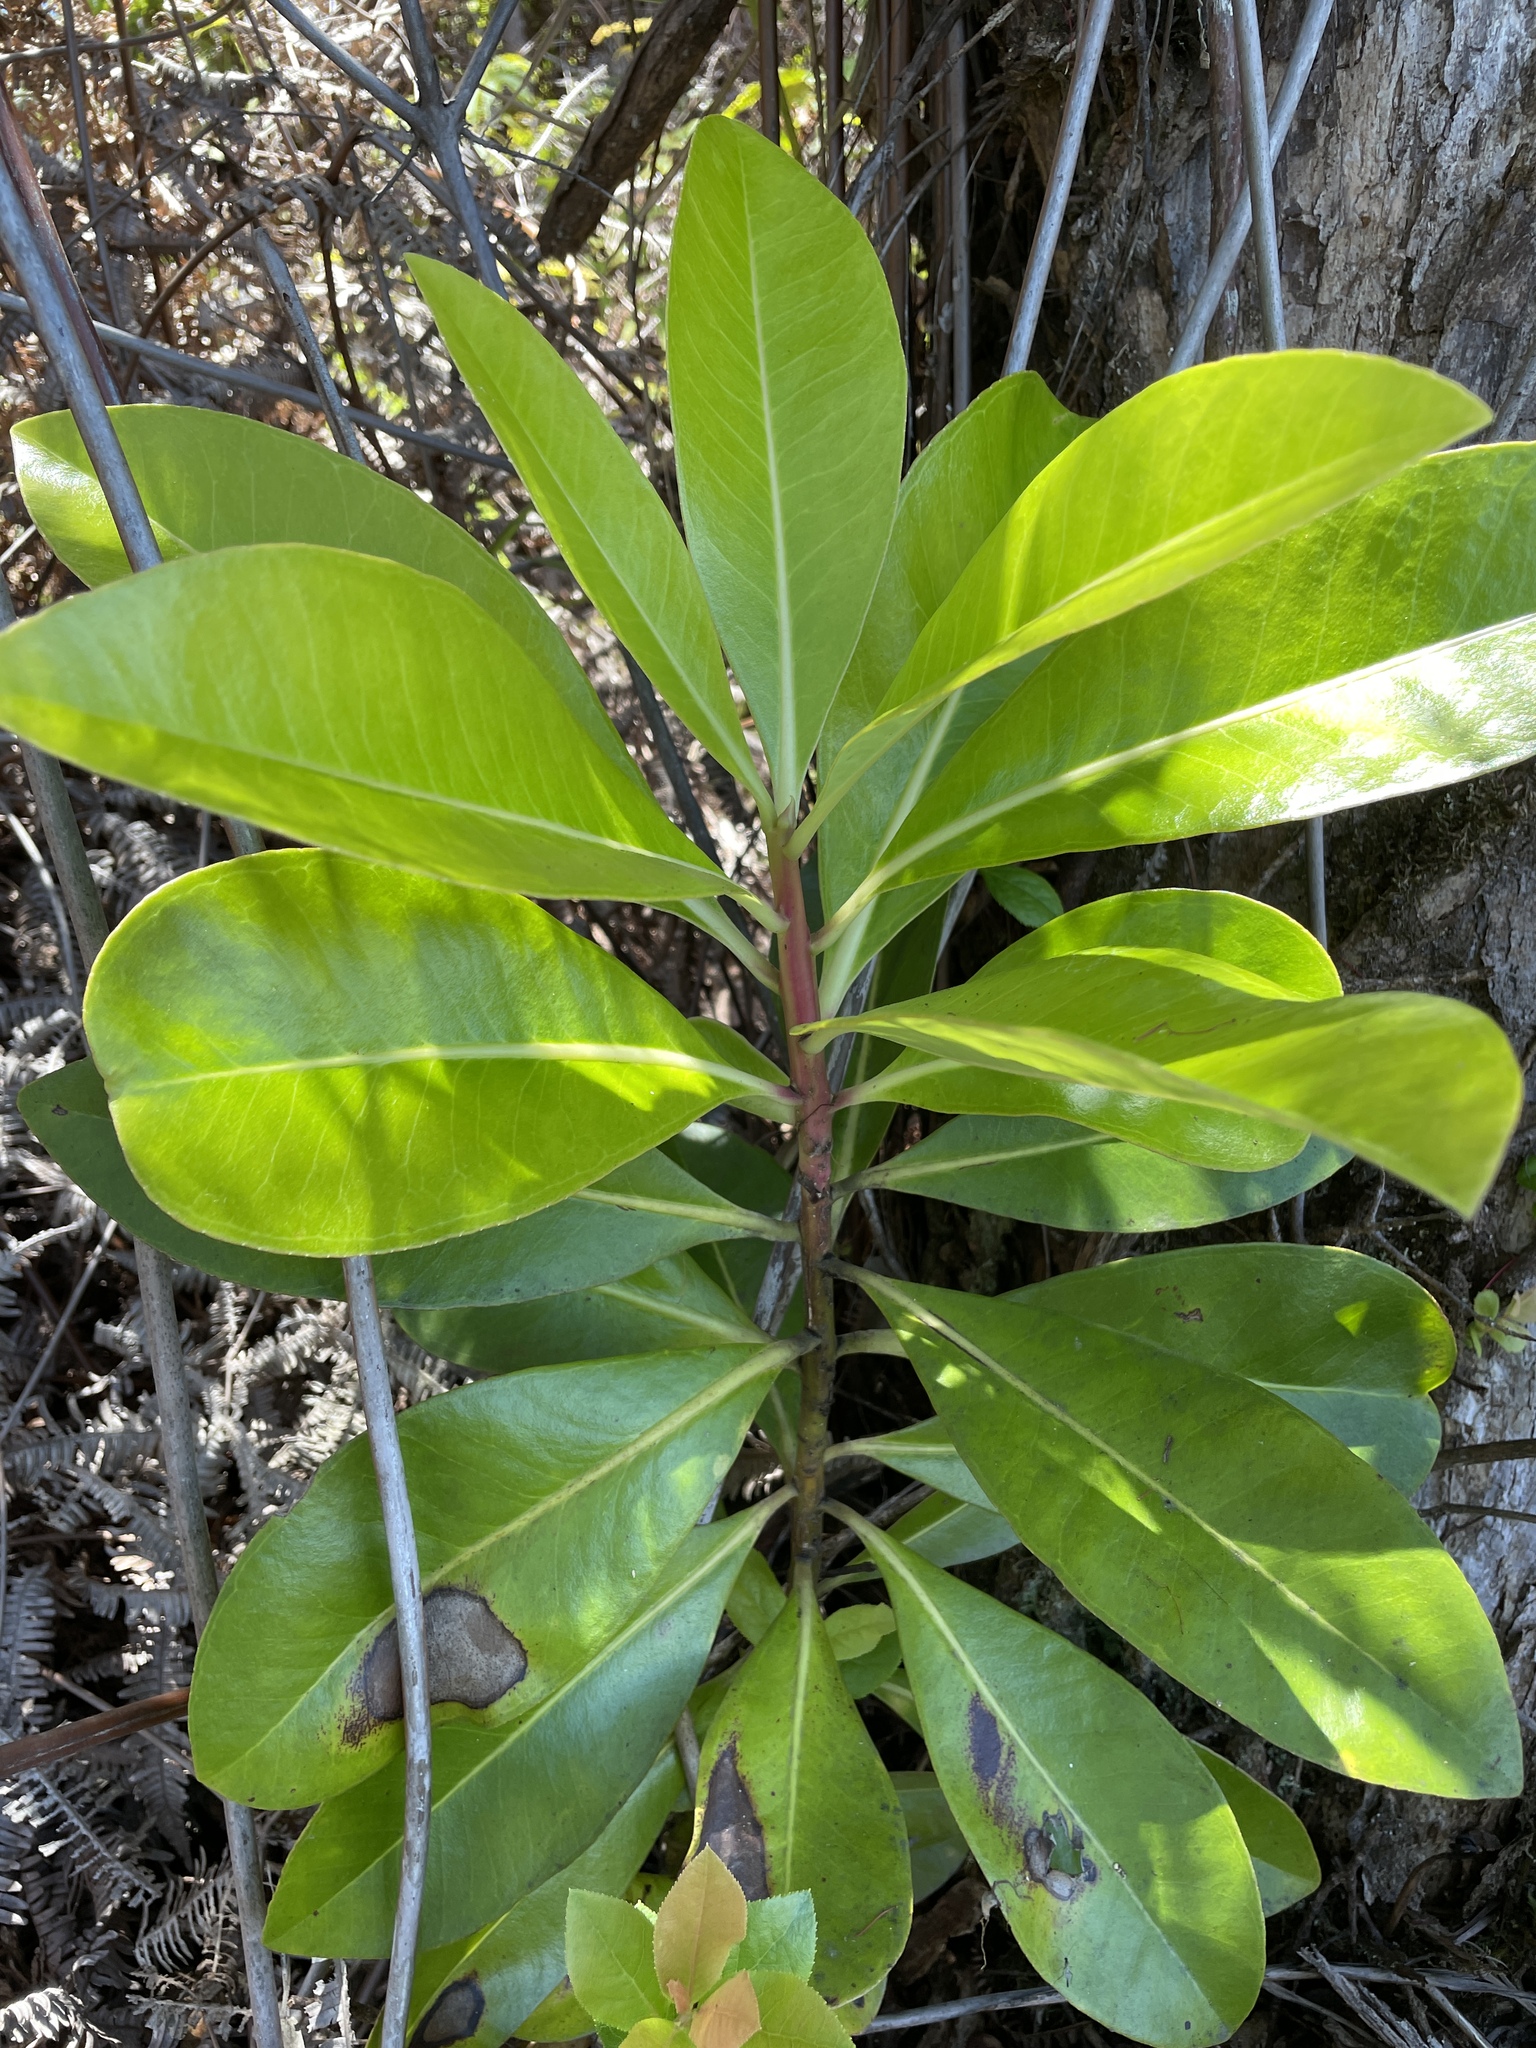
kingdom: Plantae
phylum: Tracheophyta
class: Magnoliopsida
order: Ericales
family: Primulaceae
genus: Myrsine
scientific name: Myrsine lessertiana
